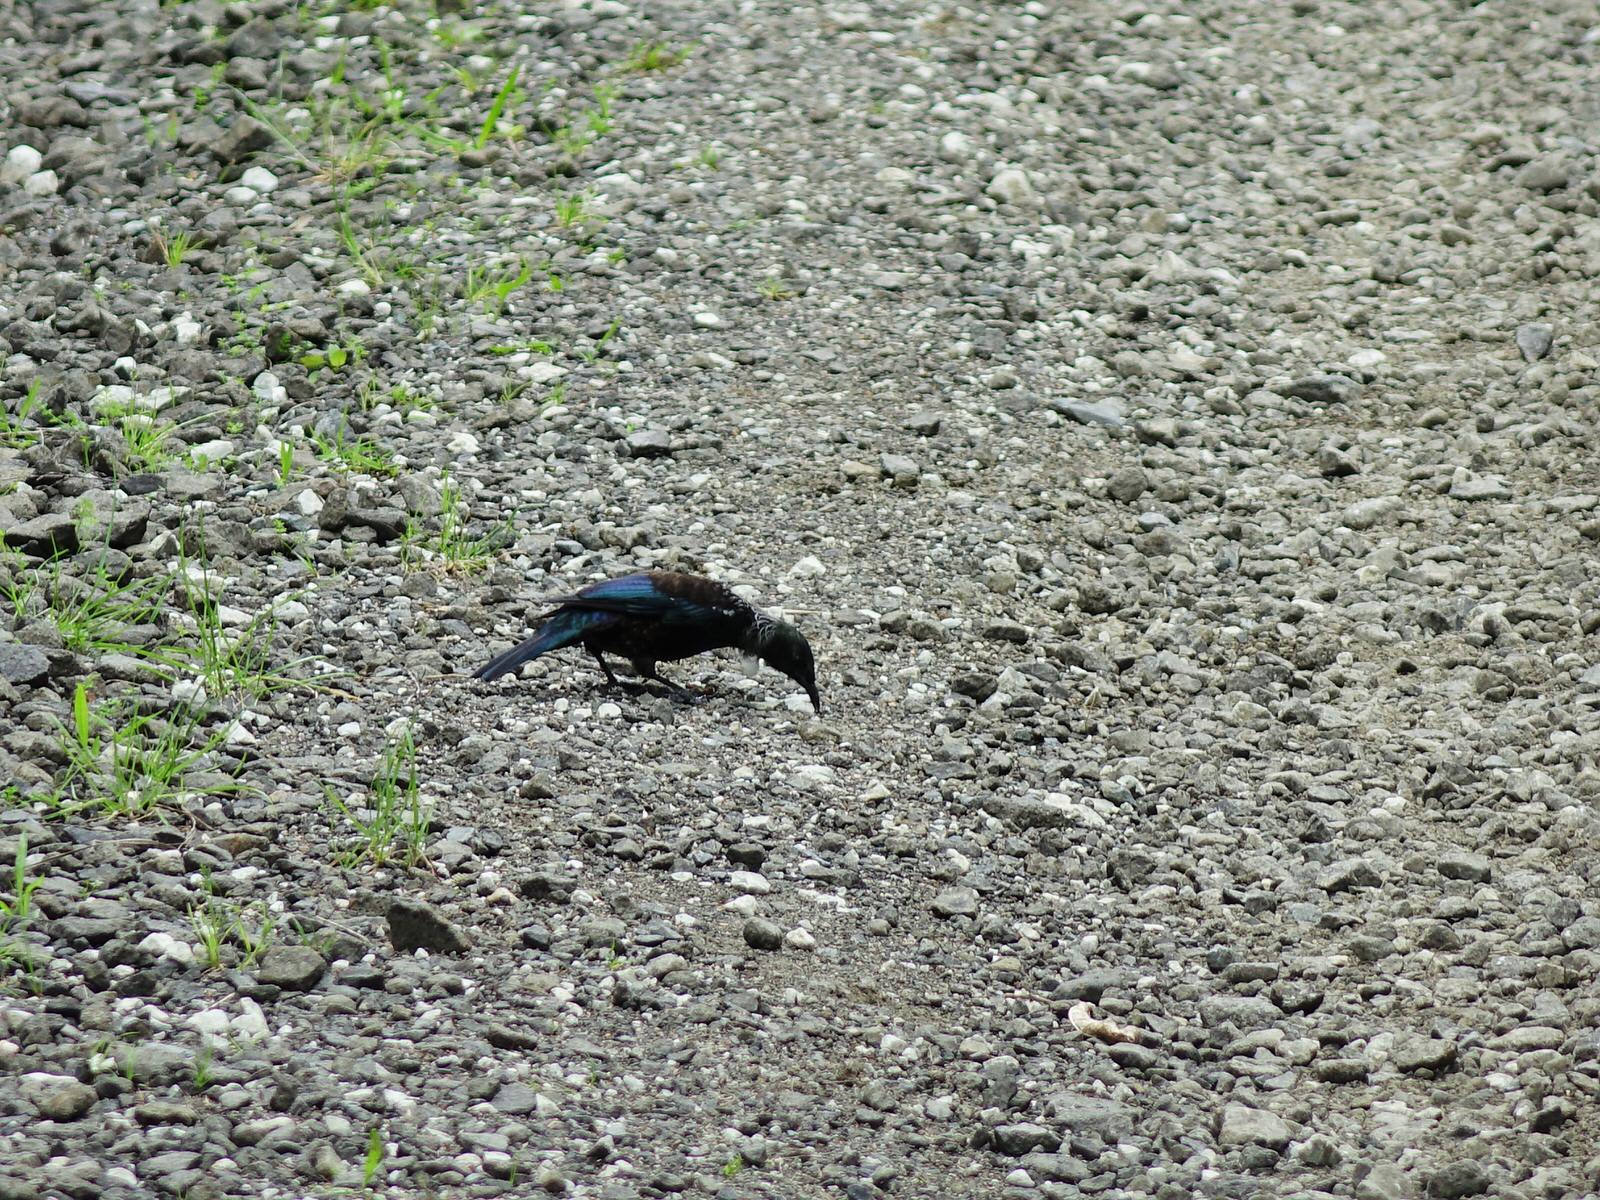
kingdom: Animalia
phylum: Chordata
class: Aves
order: Passeriformes
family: Meliphagidae
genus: Prosthemadera
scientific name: Prosthemadera novaeseelandiae
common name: Tui
